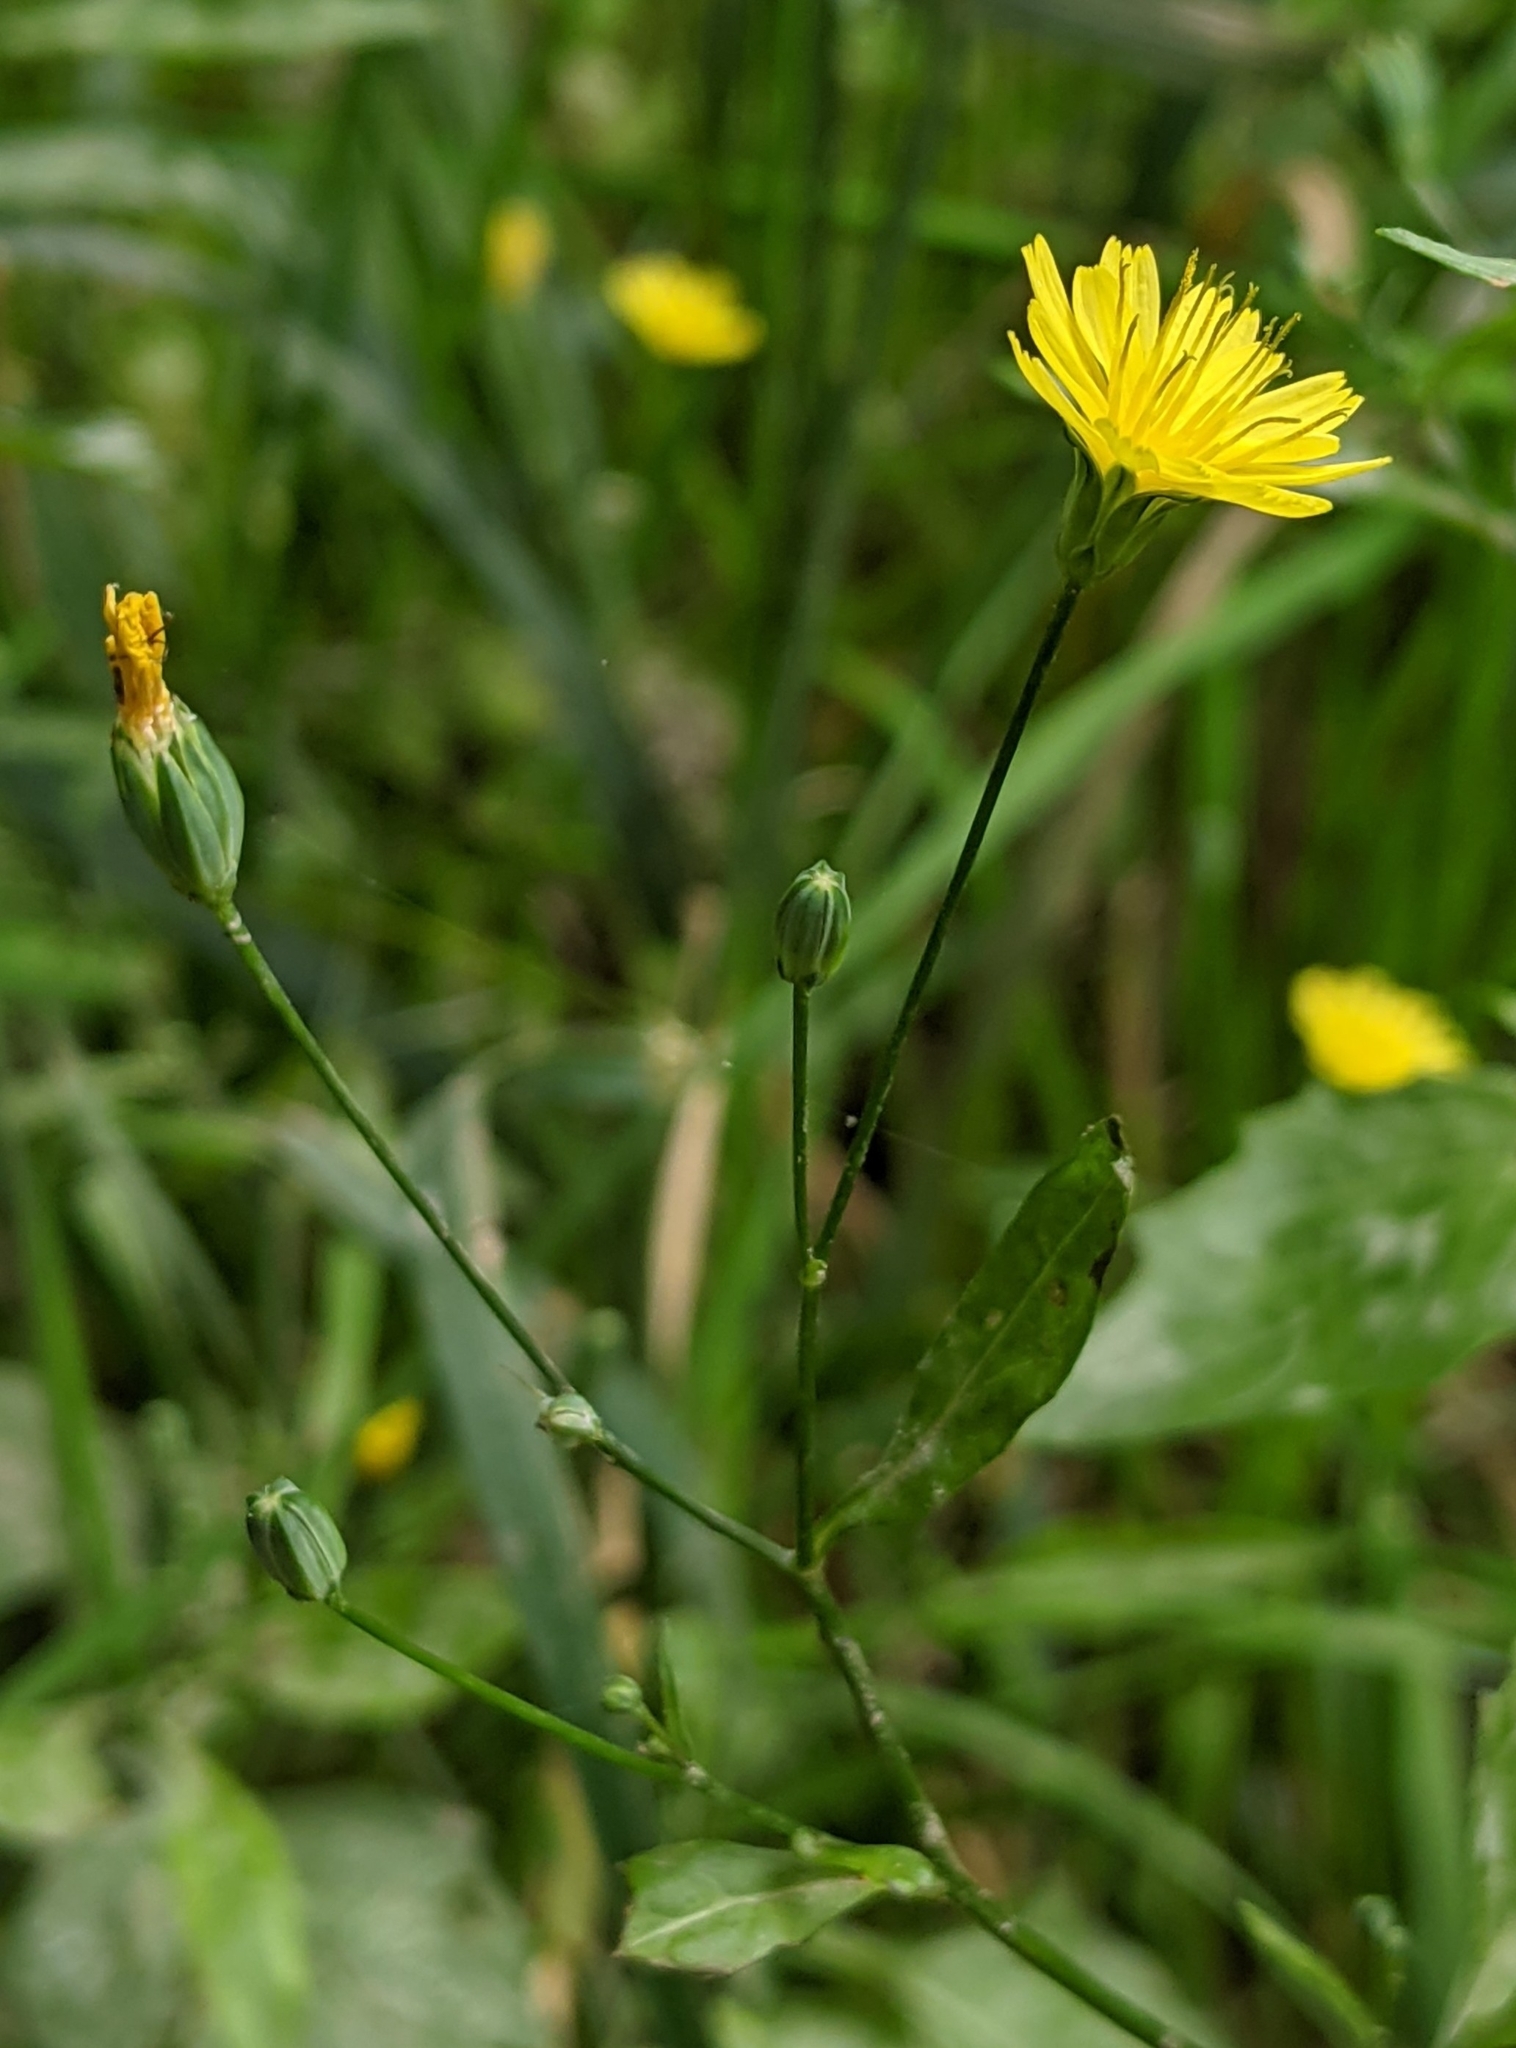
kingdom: Plantae
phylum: Tracheophyta
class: Magnoliopsida
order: Asterales
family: Asteraceae
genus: Lapsana
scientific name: Lapsana communis
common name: Nipplewort
